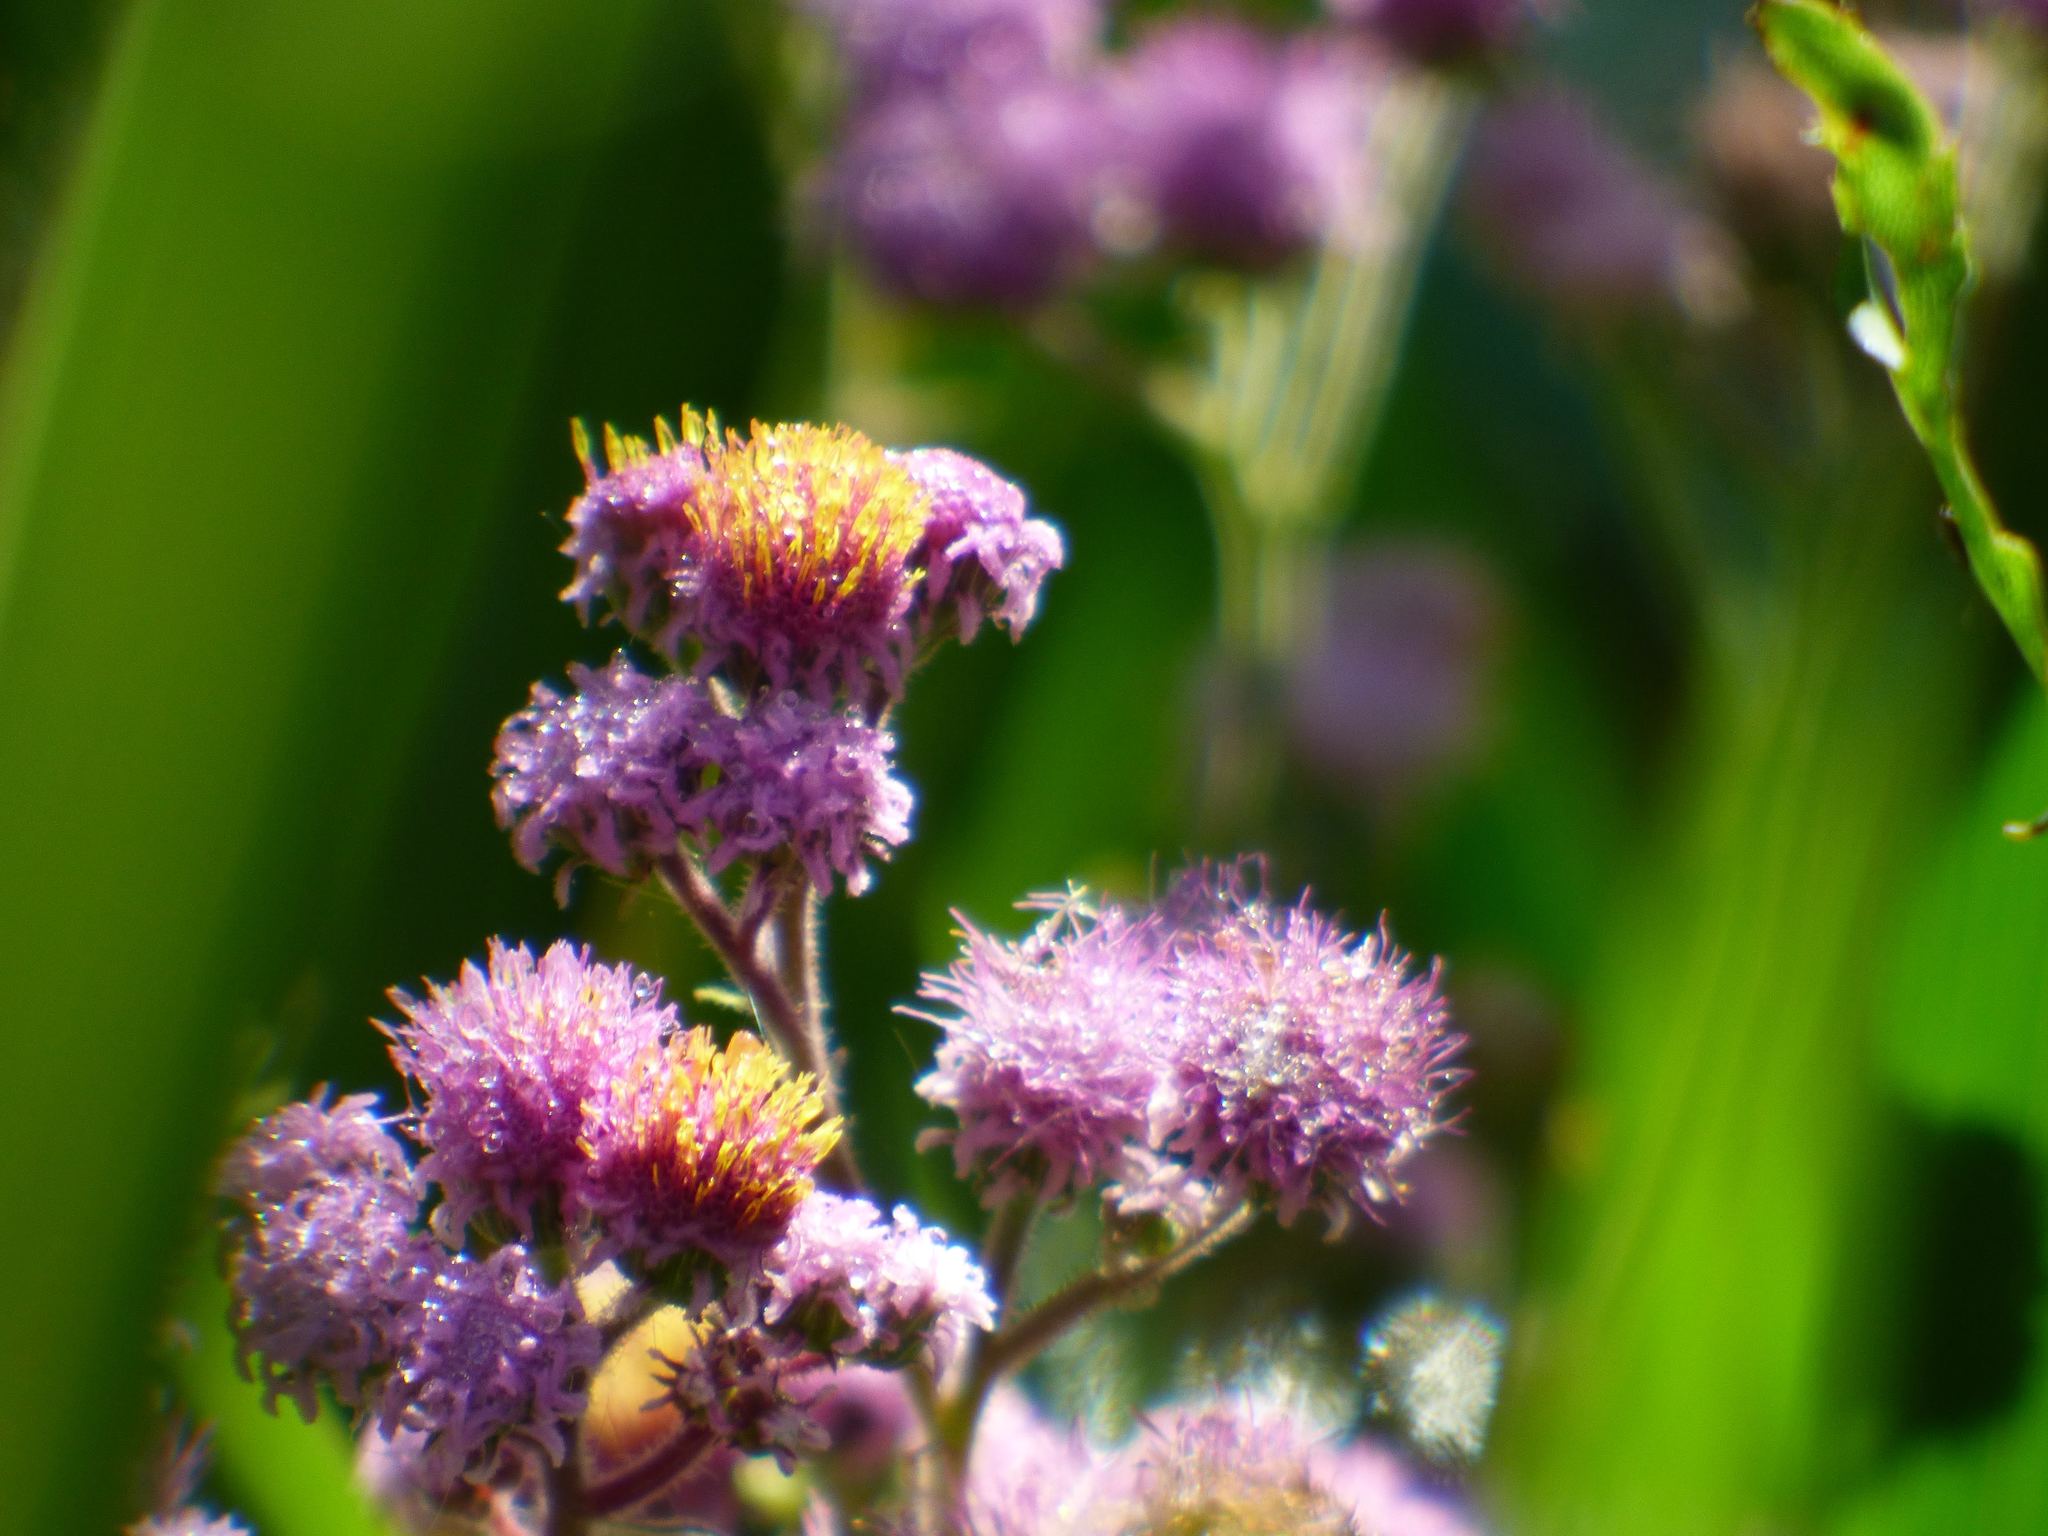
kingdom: Plantae
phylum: Tracheophyta
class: Magnoliopsida
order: Asterales
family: Asteraceae
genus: Urolepis
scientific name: Urolepis hecatantha
